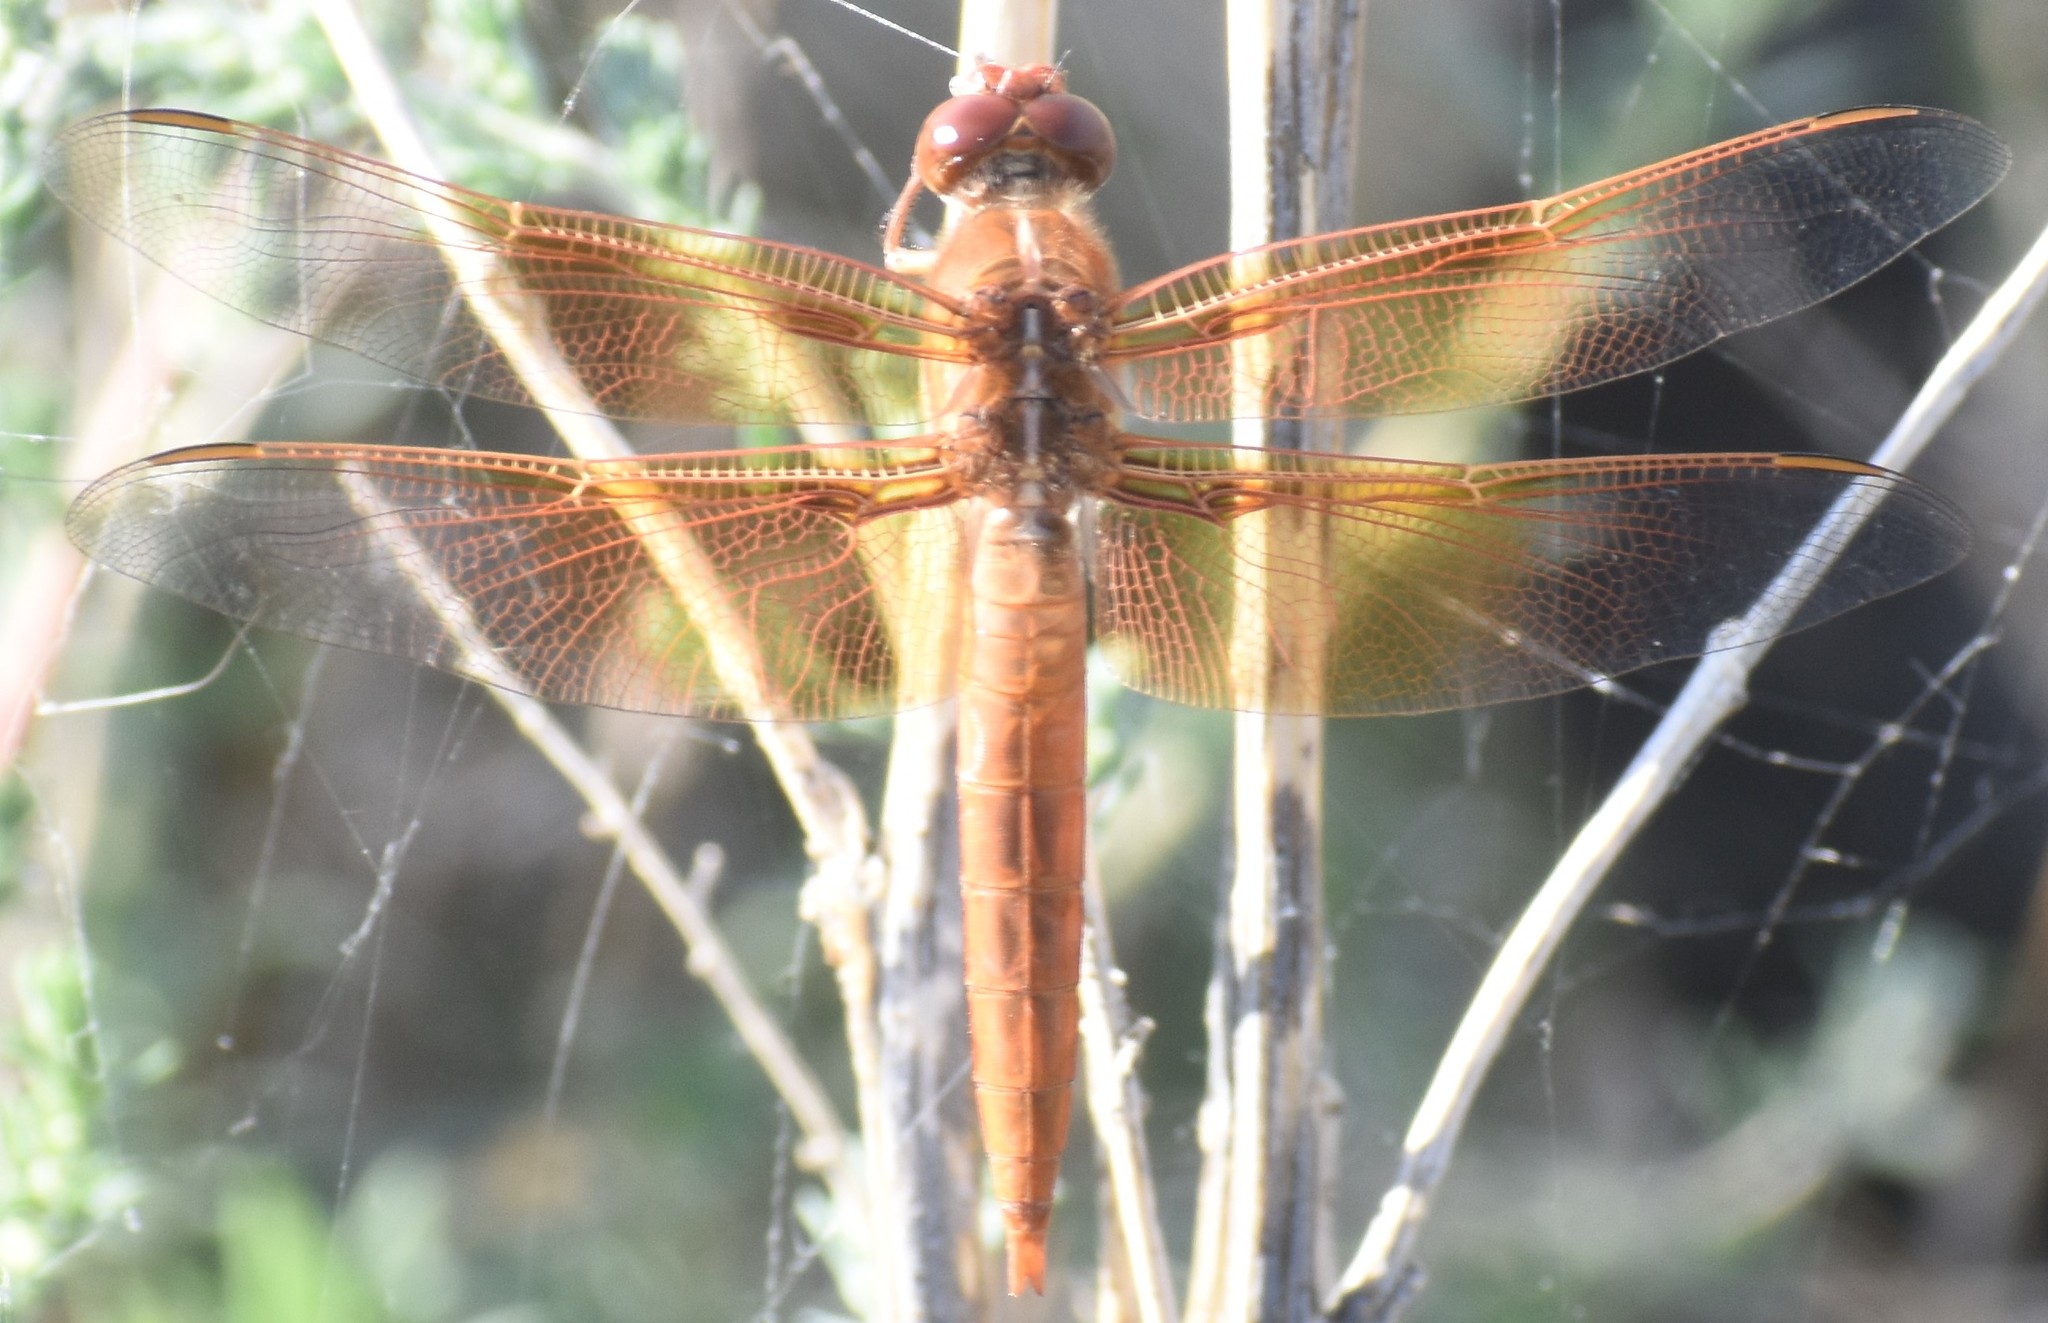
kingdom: Animalia
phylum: Arthropoda
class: Insecta
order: Odonata
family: Libellulidae
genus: Libellula
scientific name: Libellula saturata
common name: Flame skimmer
